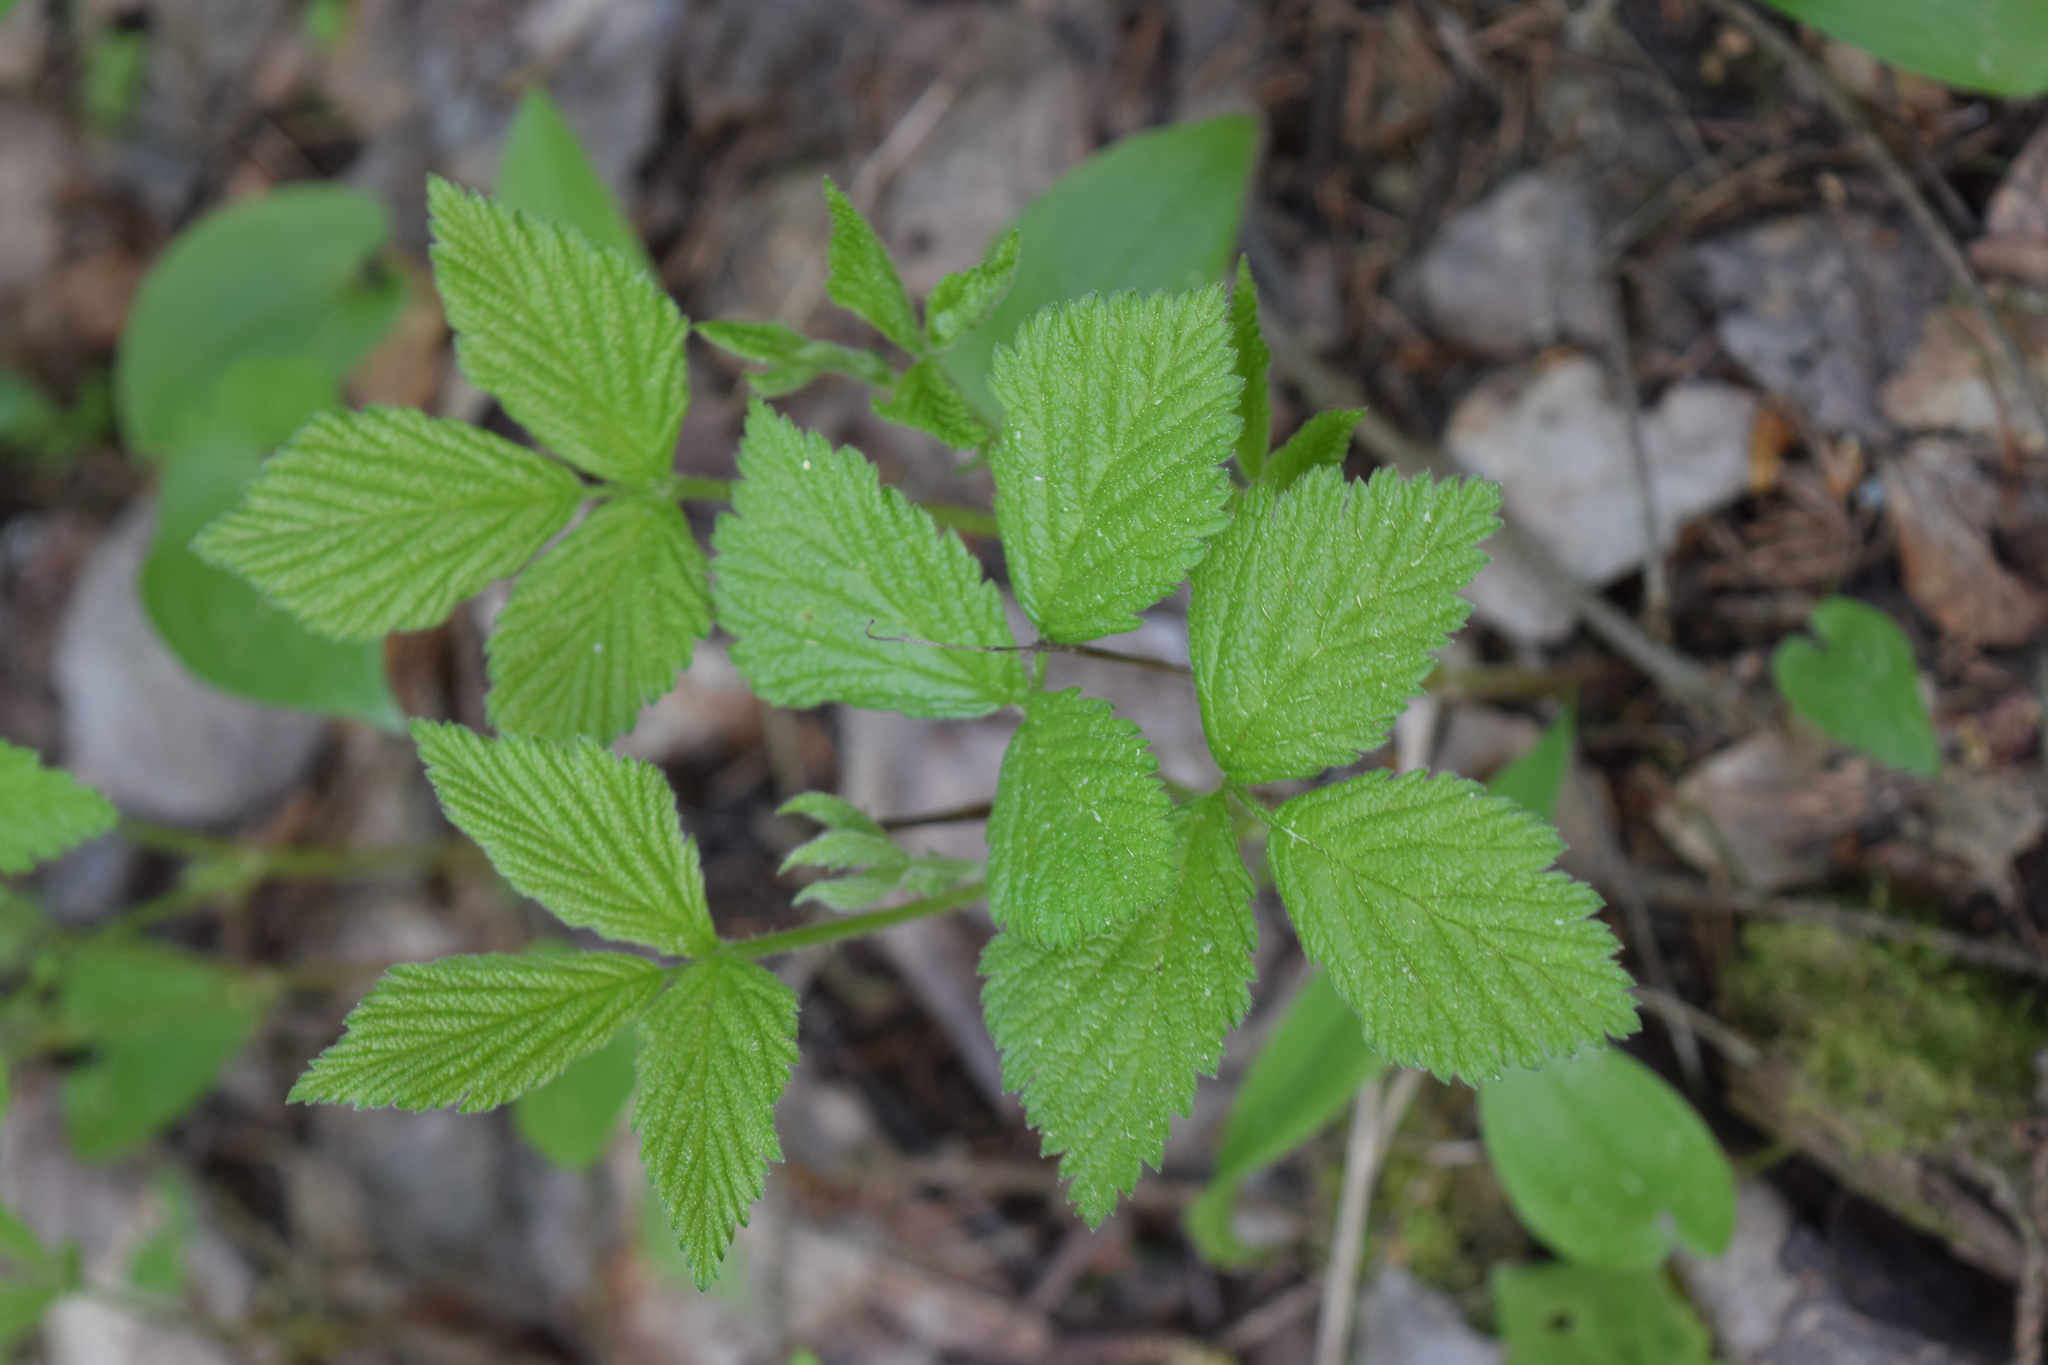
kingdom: Plantae
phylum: Tracheophyta
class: Magnoliopsida
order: Rosales
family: Rosaceae
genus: Rubus
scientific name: Rubus saxatilis
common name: Stone bramble
